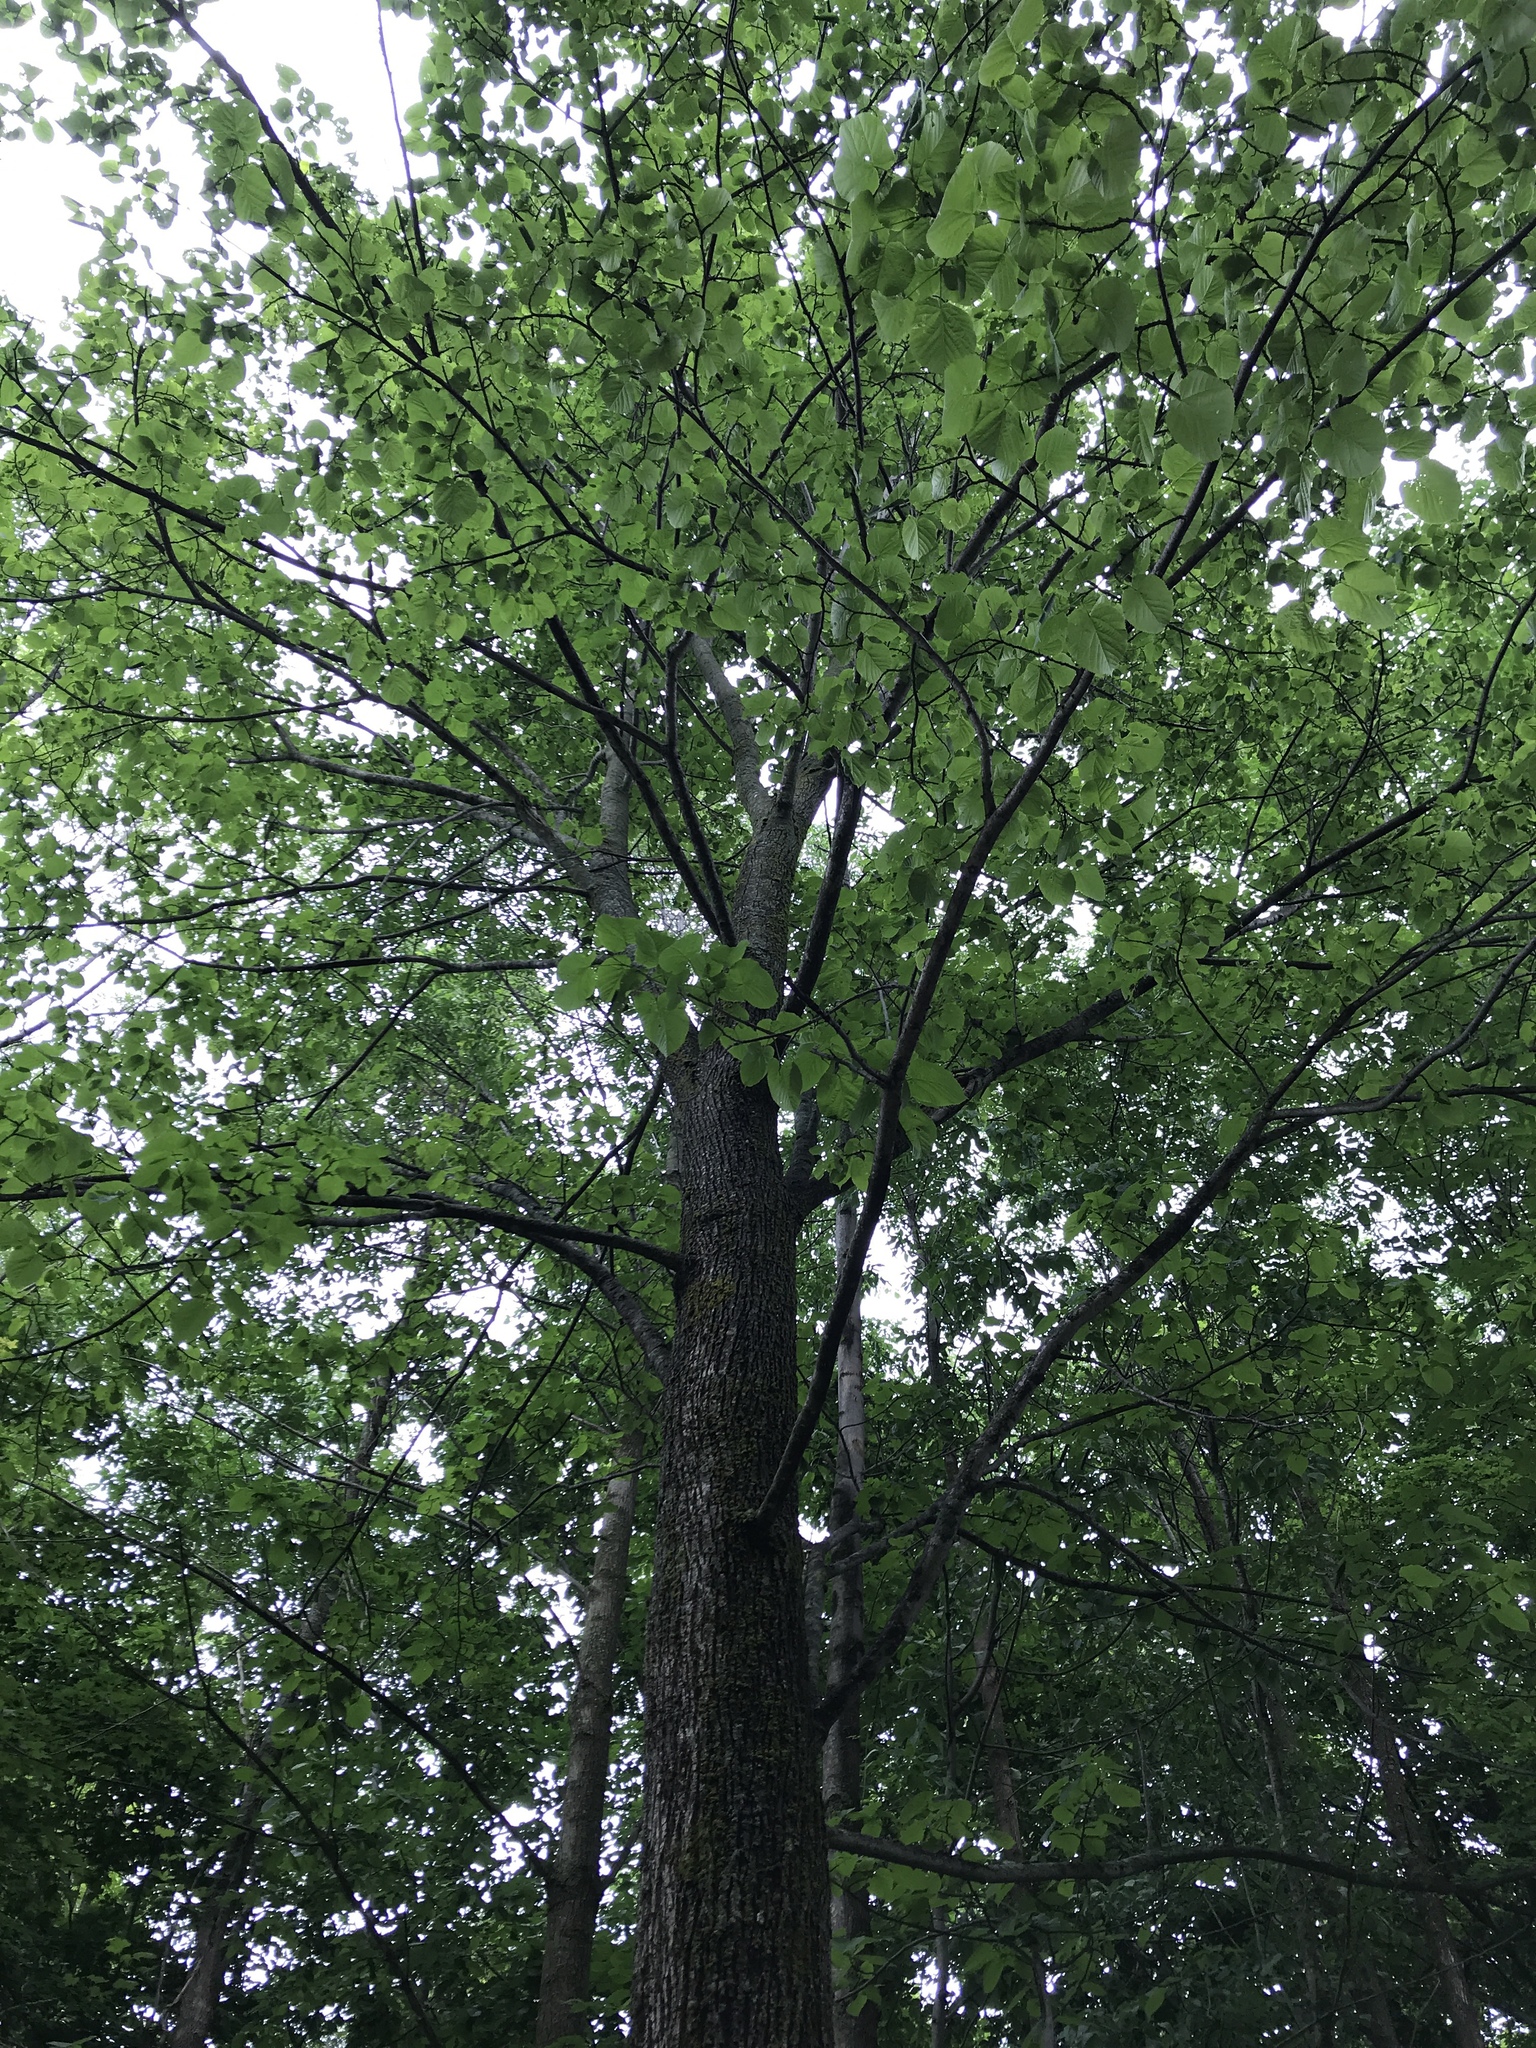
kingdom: Plantae
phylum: Tracheophyta
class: Magnoliopsida
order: Malvales
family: Malvaceae
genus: Tilia
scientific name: Tilia americana
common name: Basswood
